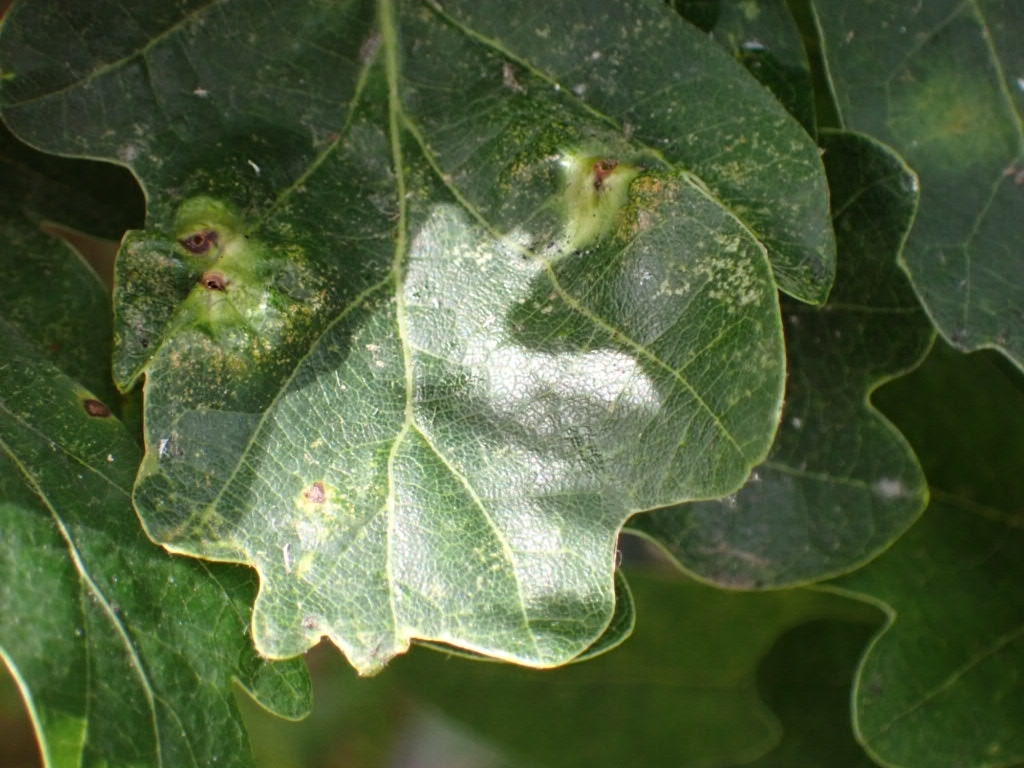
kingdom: Animalia
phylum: Arthropoda
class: Insecta
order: Hymenoptera
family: Cynipidae
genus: Andricus
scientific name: Andricus curvator
